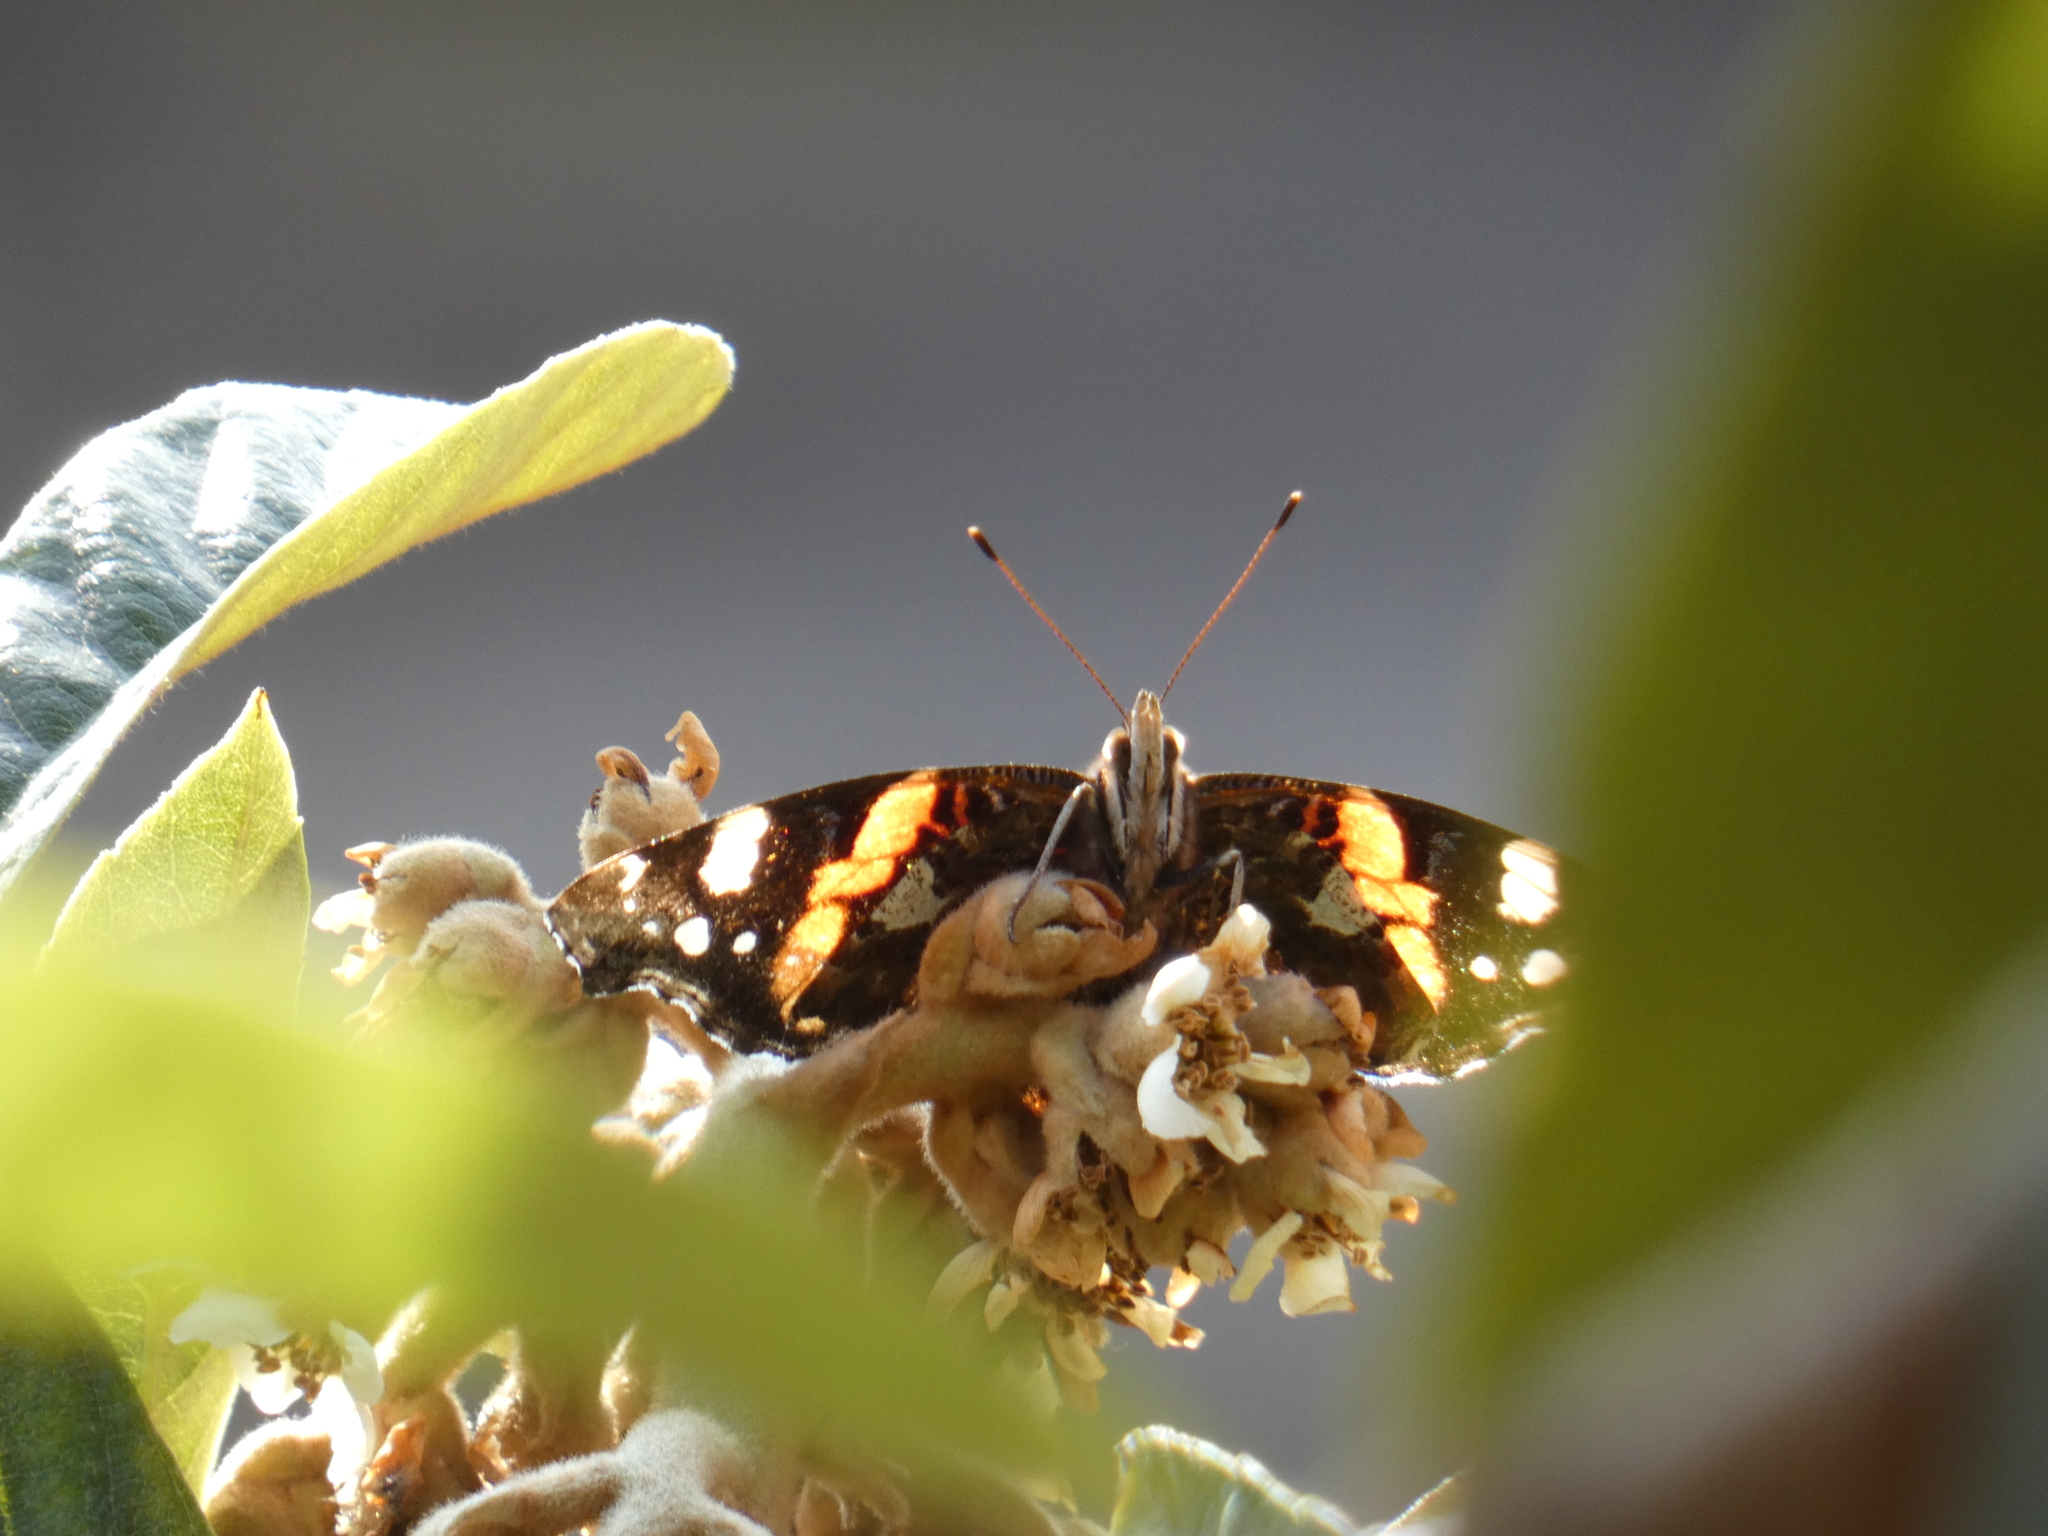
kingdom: Animalia
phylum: Arthropoda
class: Insecta
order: Lepidoptera
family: Nymphalidae
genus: Vanessa
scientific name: Vanessa atalanta
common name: Red admiral
